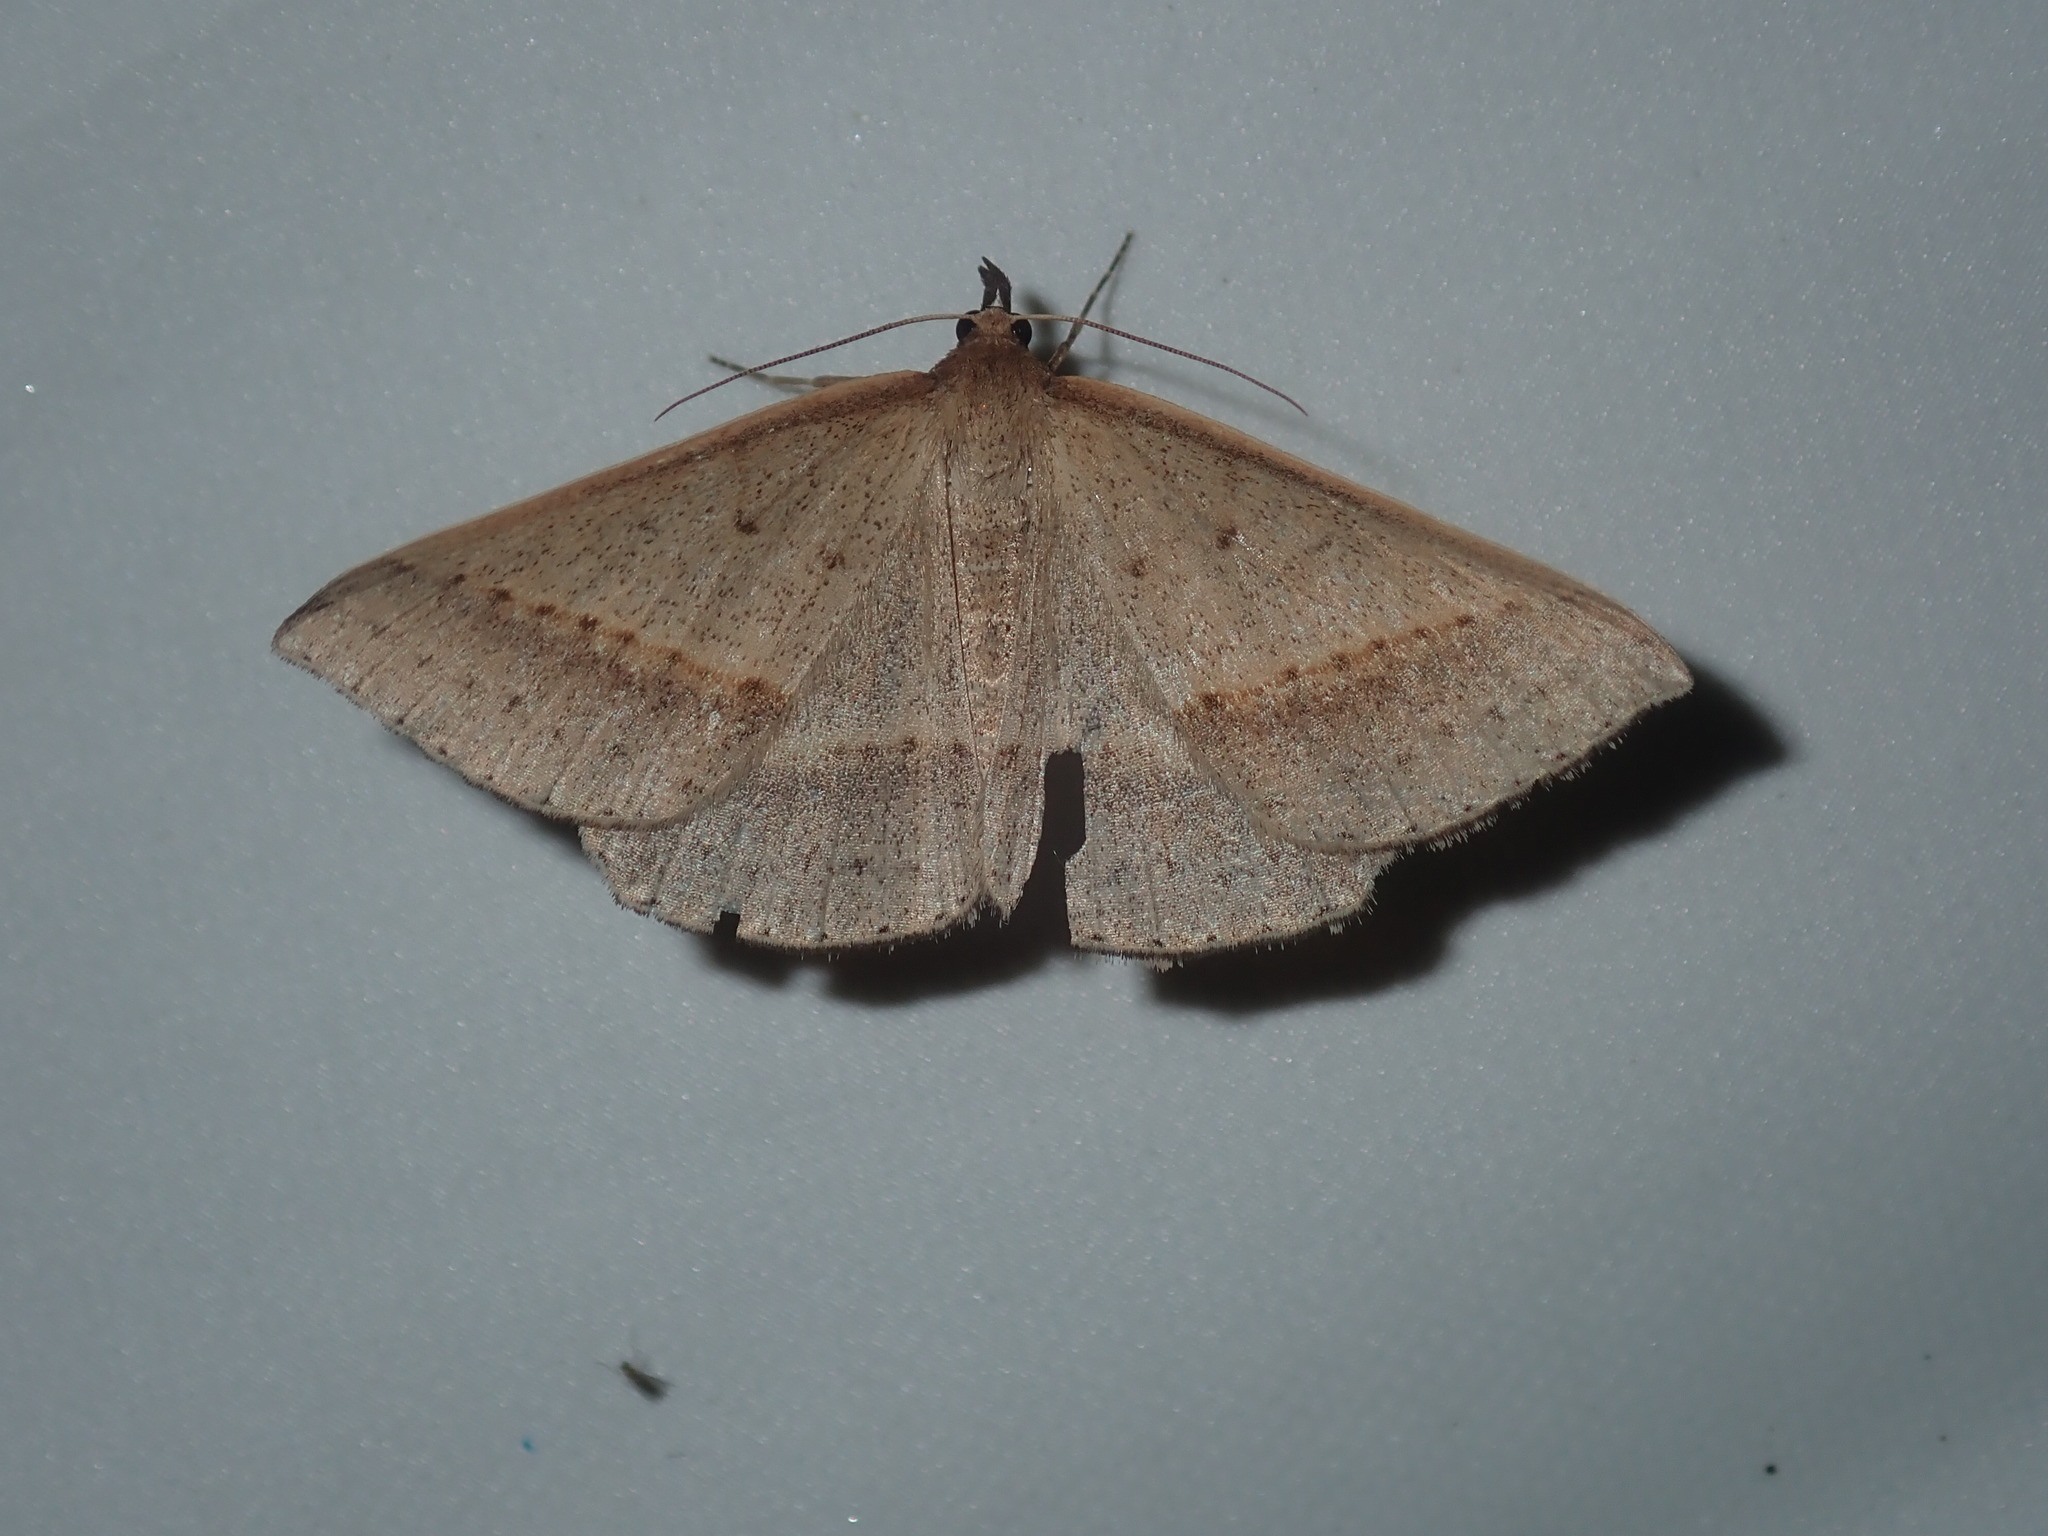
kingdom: Animalia
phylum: Arthropoda
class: Insecta
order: Lepidoptera
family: Geometridae
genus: Epidesmia
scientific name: Epidesmia tryxaria
